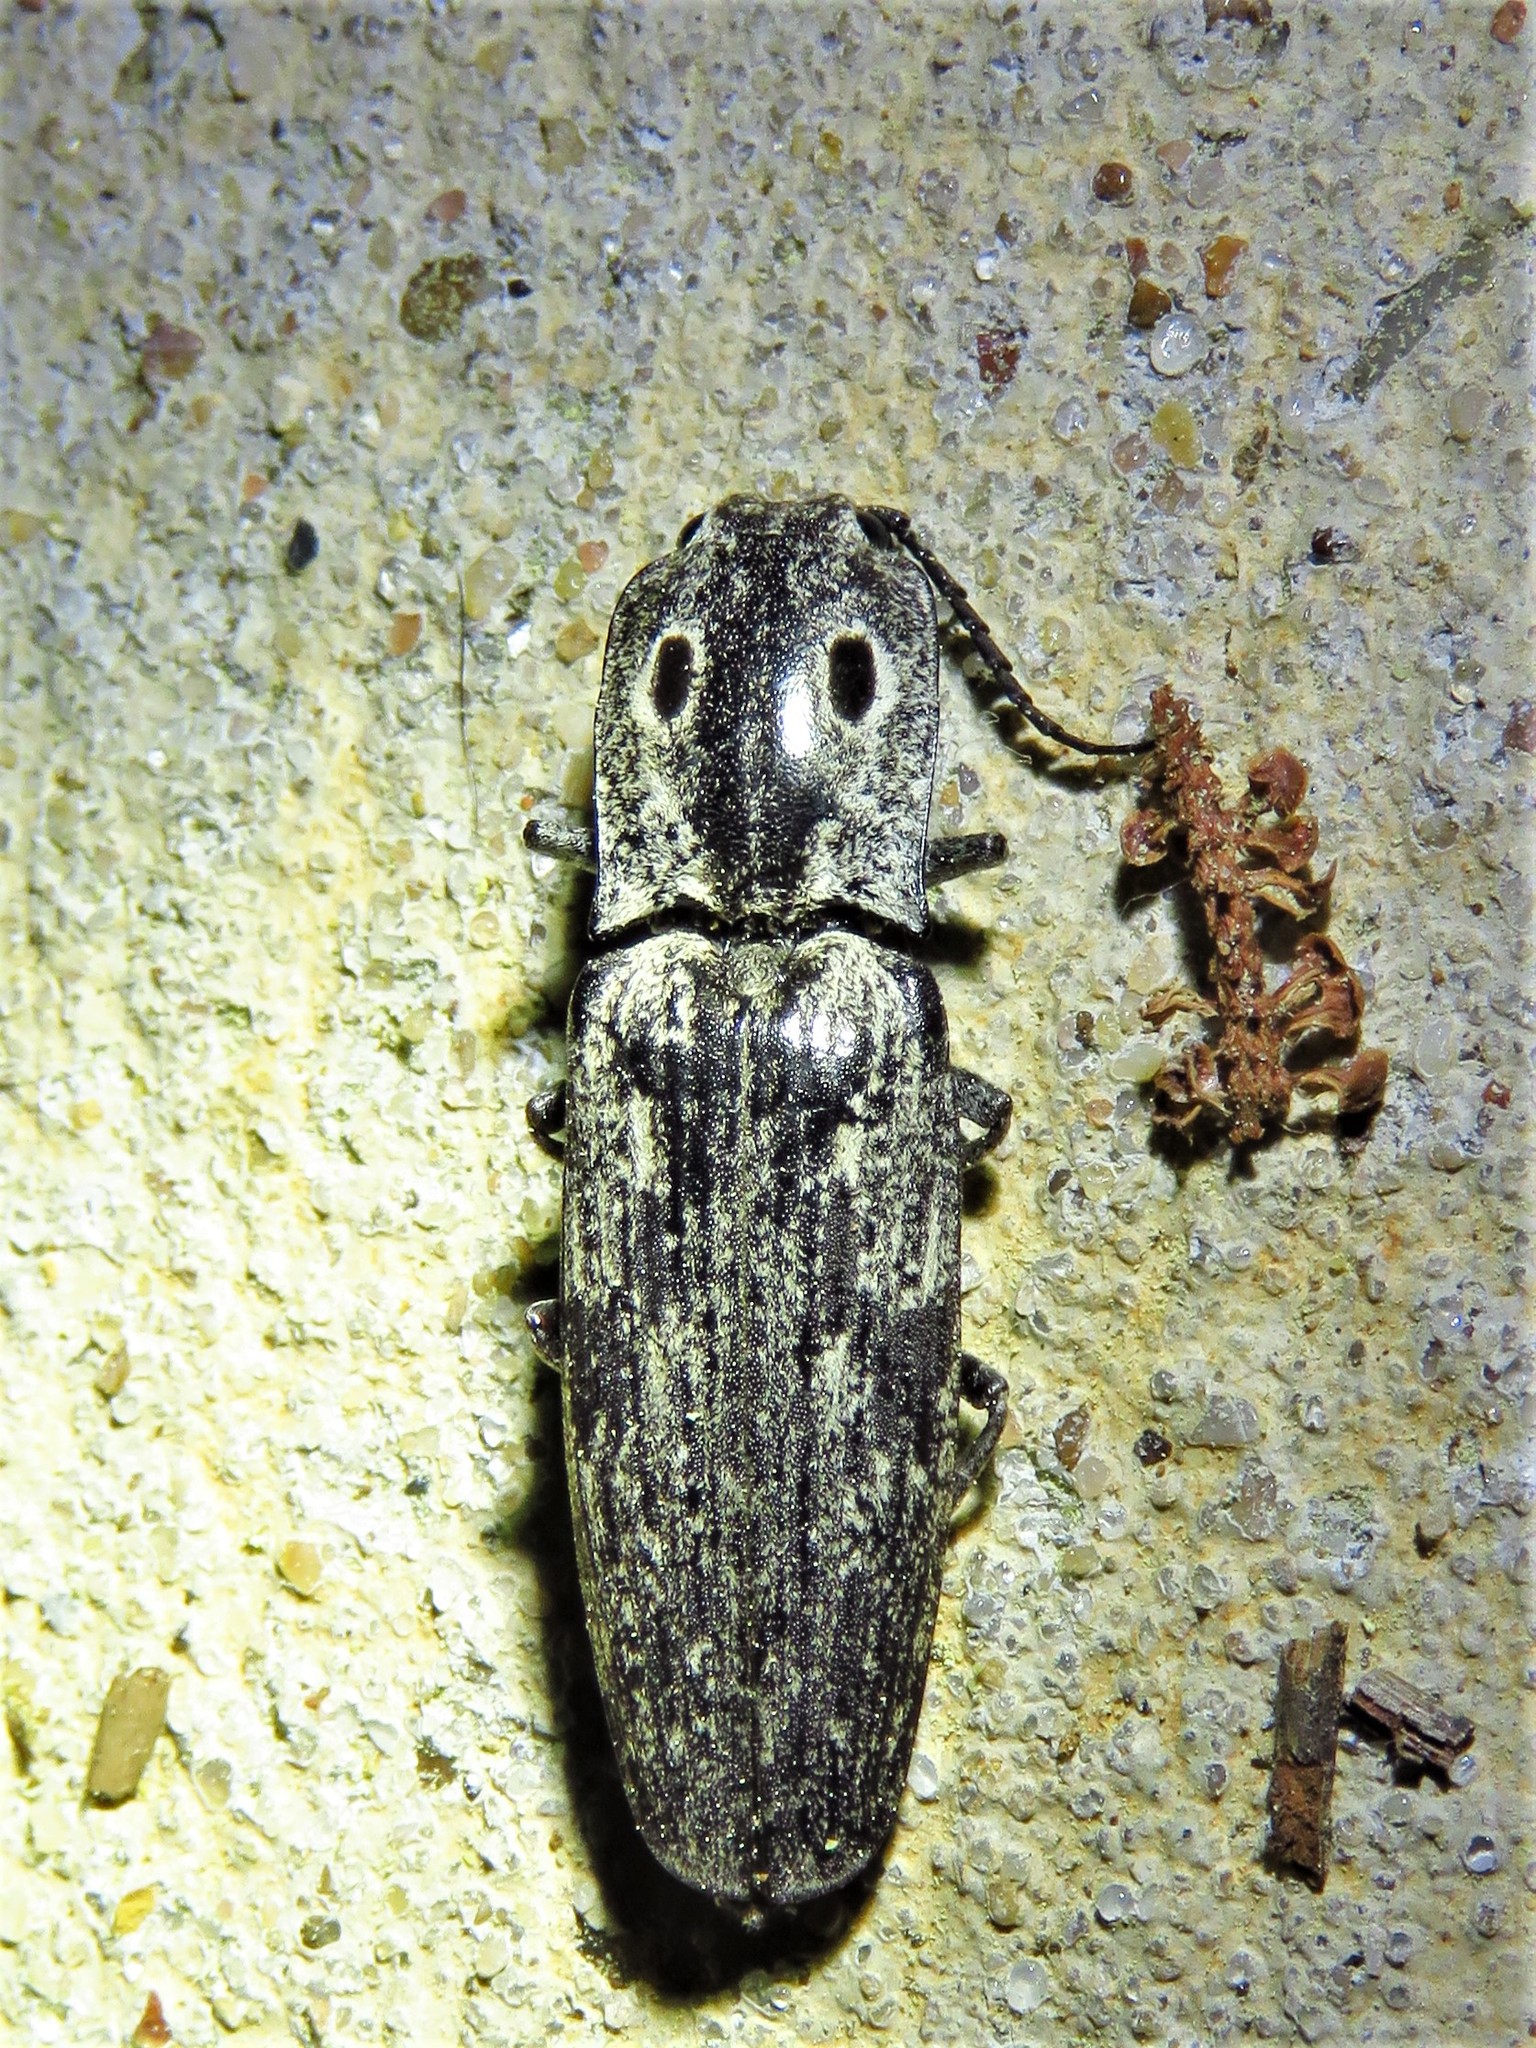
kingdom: Animalia
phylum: Arthropoda
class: Insecta
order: Coleoptera
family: Elateridae
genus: Alaus
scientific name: Alaus myops
